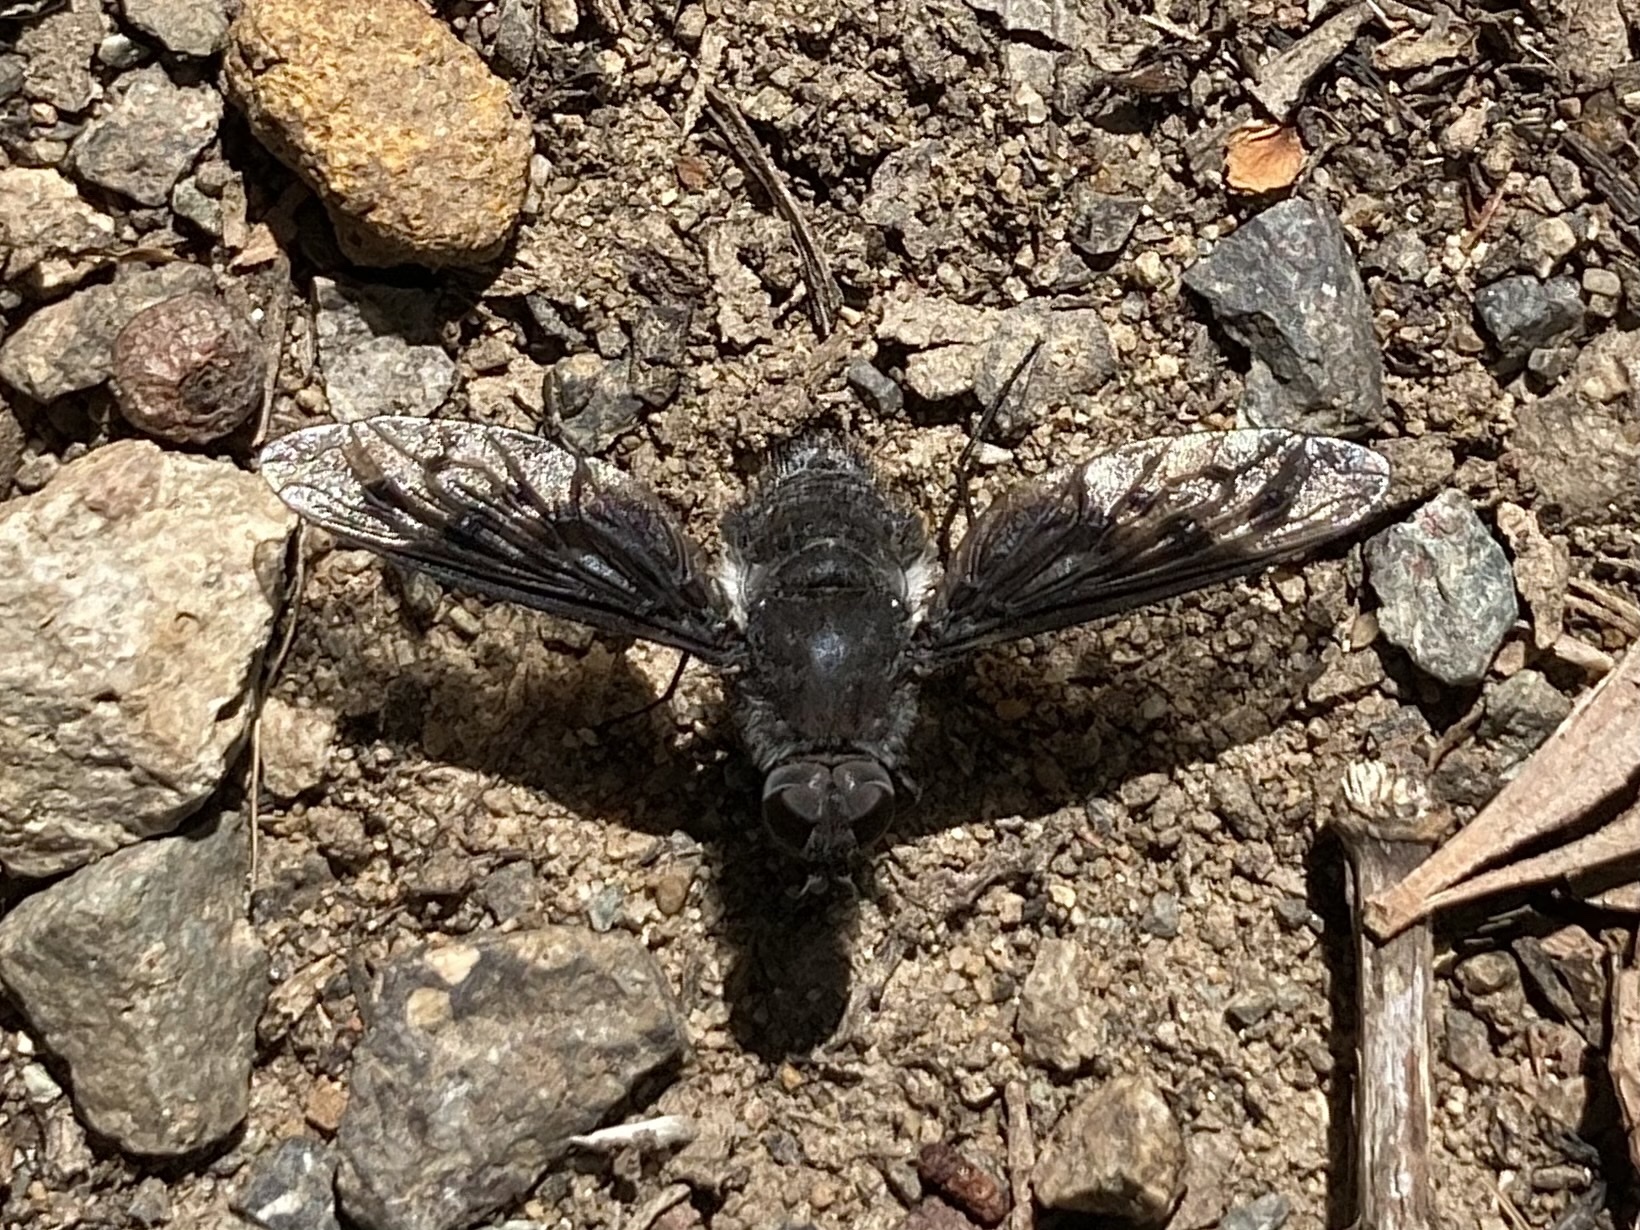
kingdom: Animalia
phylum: Arthropoda
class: Insecta
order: Diptera
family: Bombyliidae
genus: Anthrax
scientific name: Anthrax incomptus
